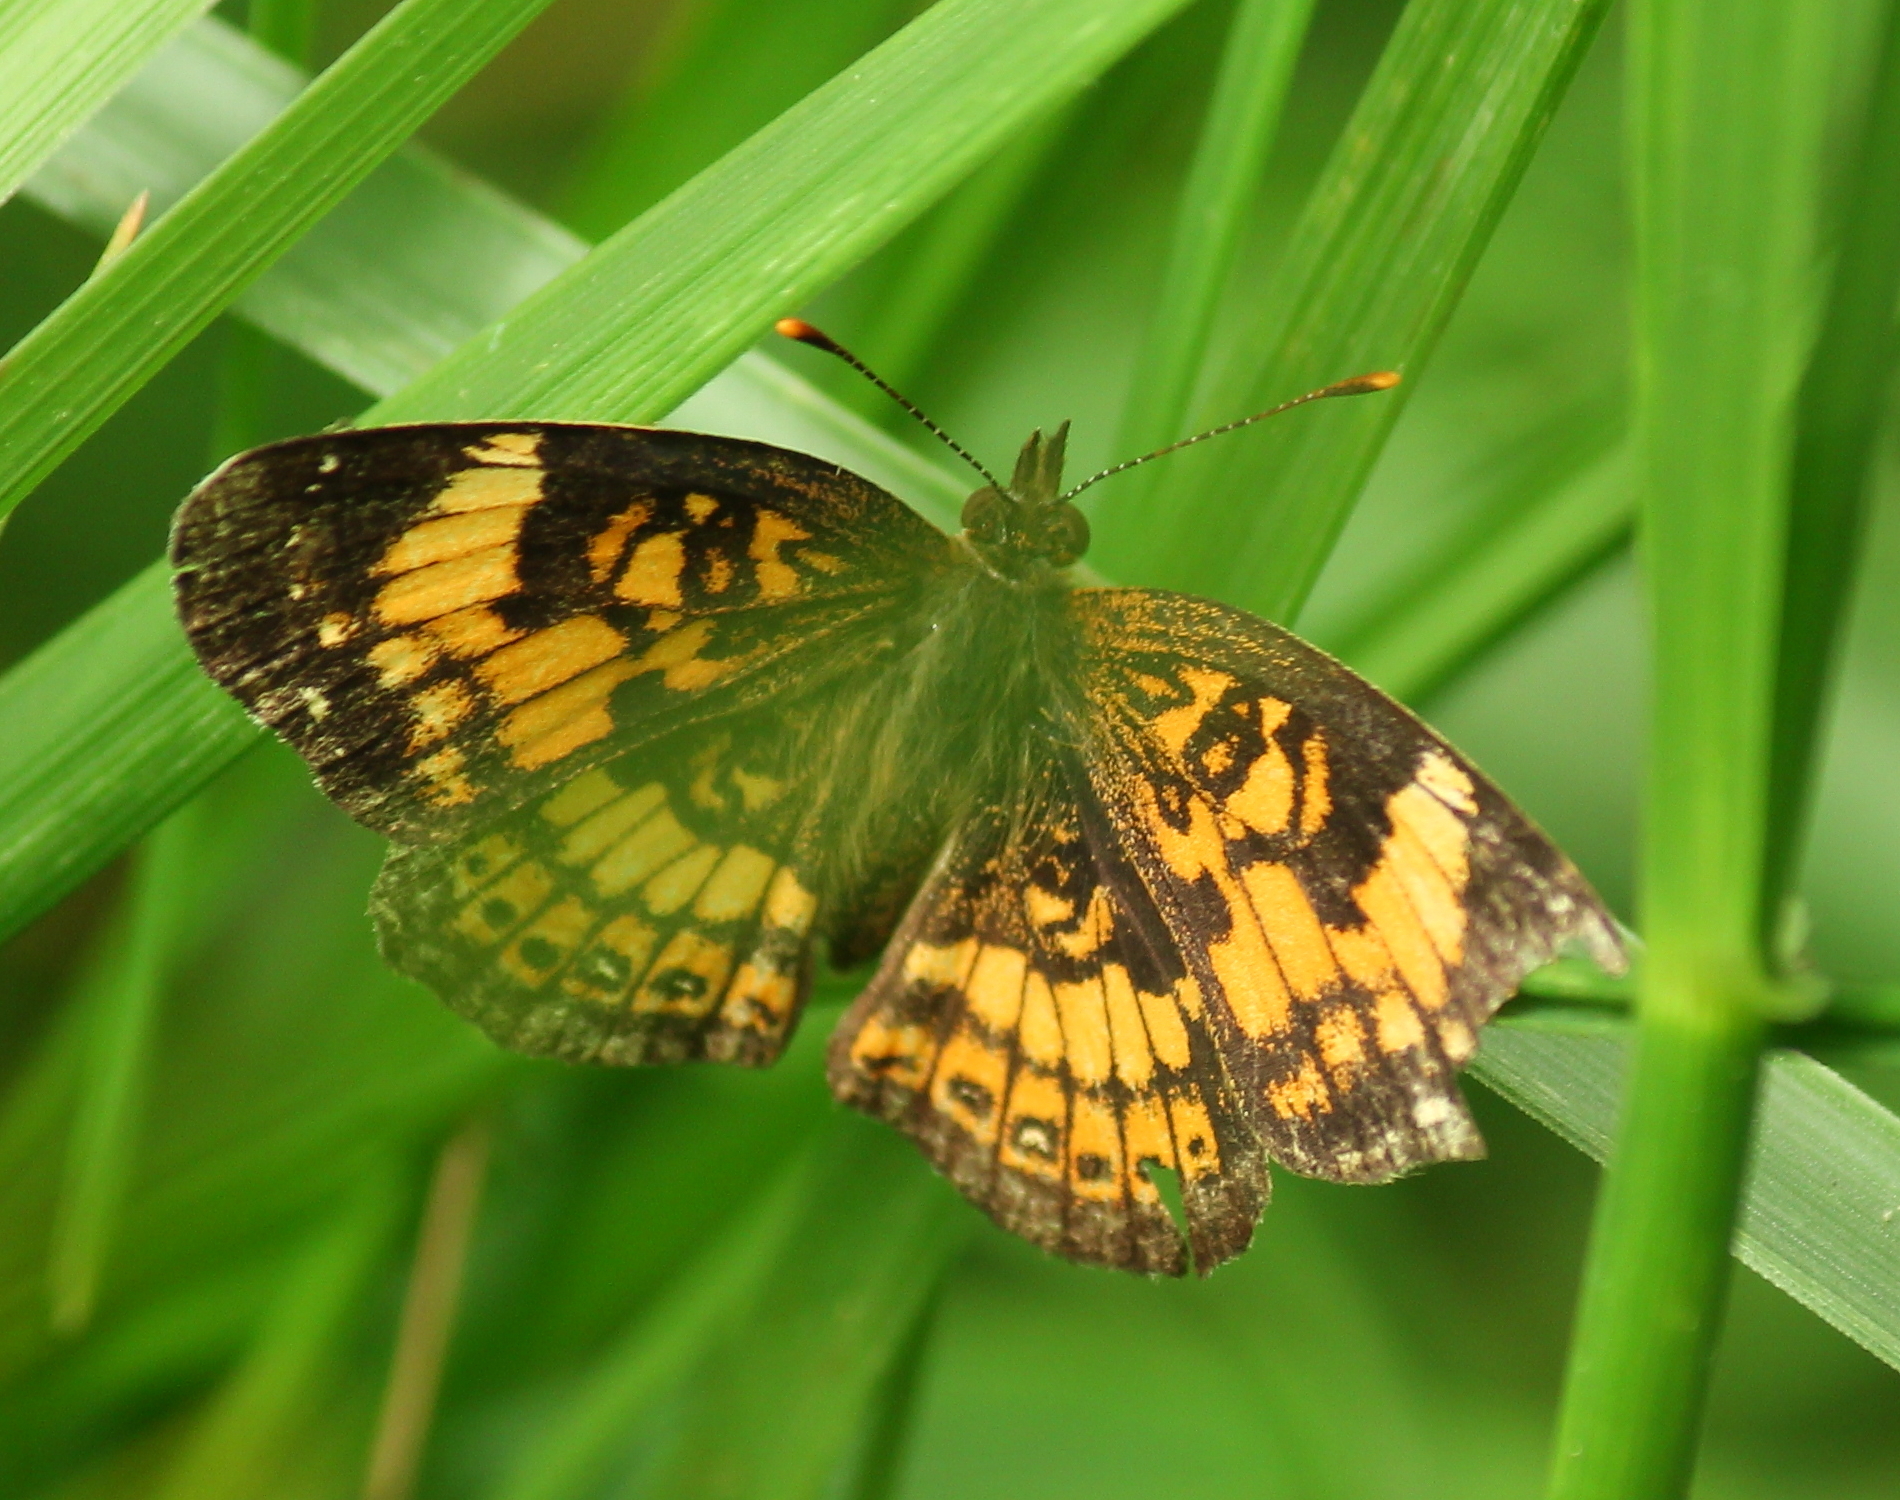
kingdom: Animalia
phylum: Arthropoda
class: Insecta
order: Lepidoptera
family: Nymphalidae
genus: Chlosyne
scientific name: Chlosyne nycteis
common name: Silvery checkerspot
